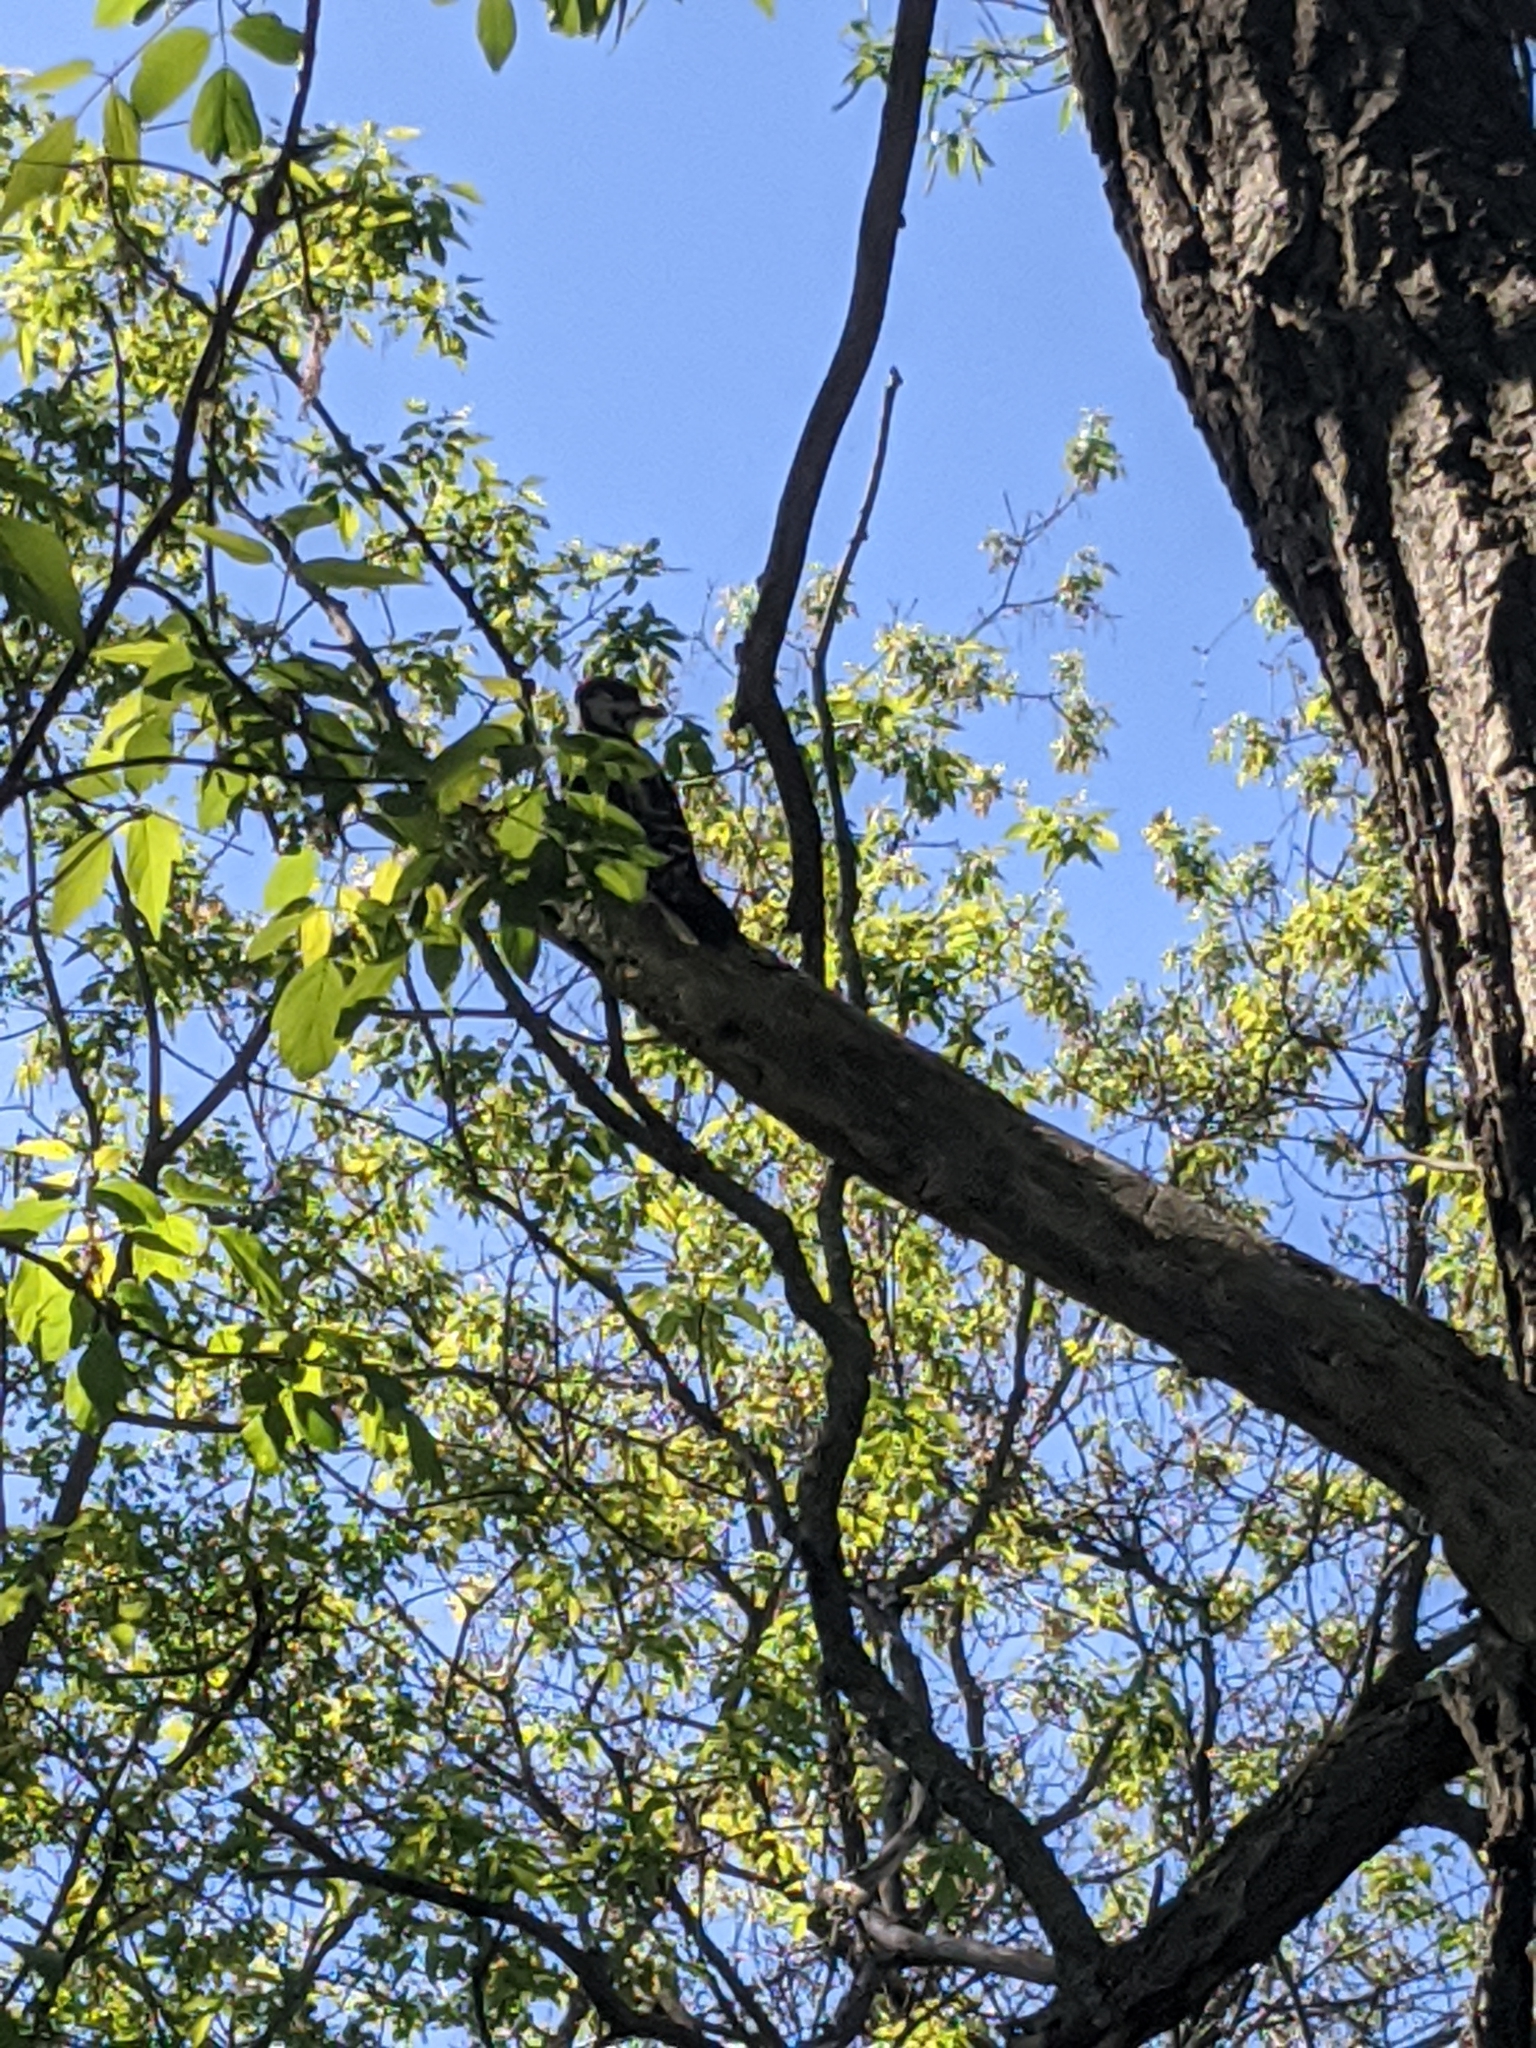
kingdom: Animalia
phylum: Chordata
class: Aves
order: Piciformes
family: Picidae
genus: Leuconotopicus
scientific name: Leuconotopicus villosus
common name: Hairy woodpecker
